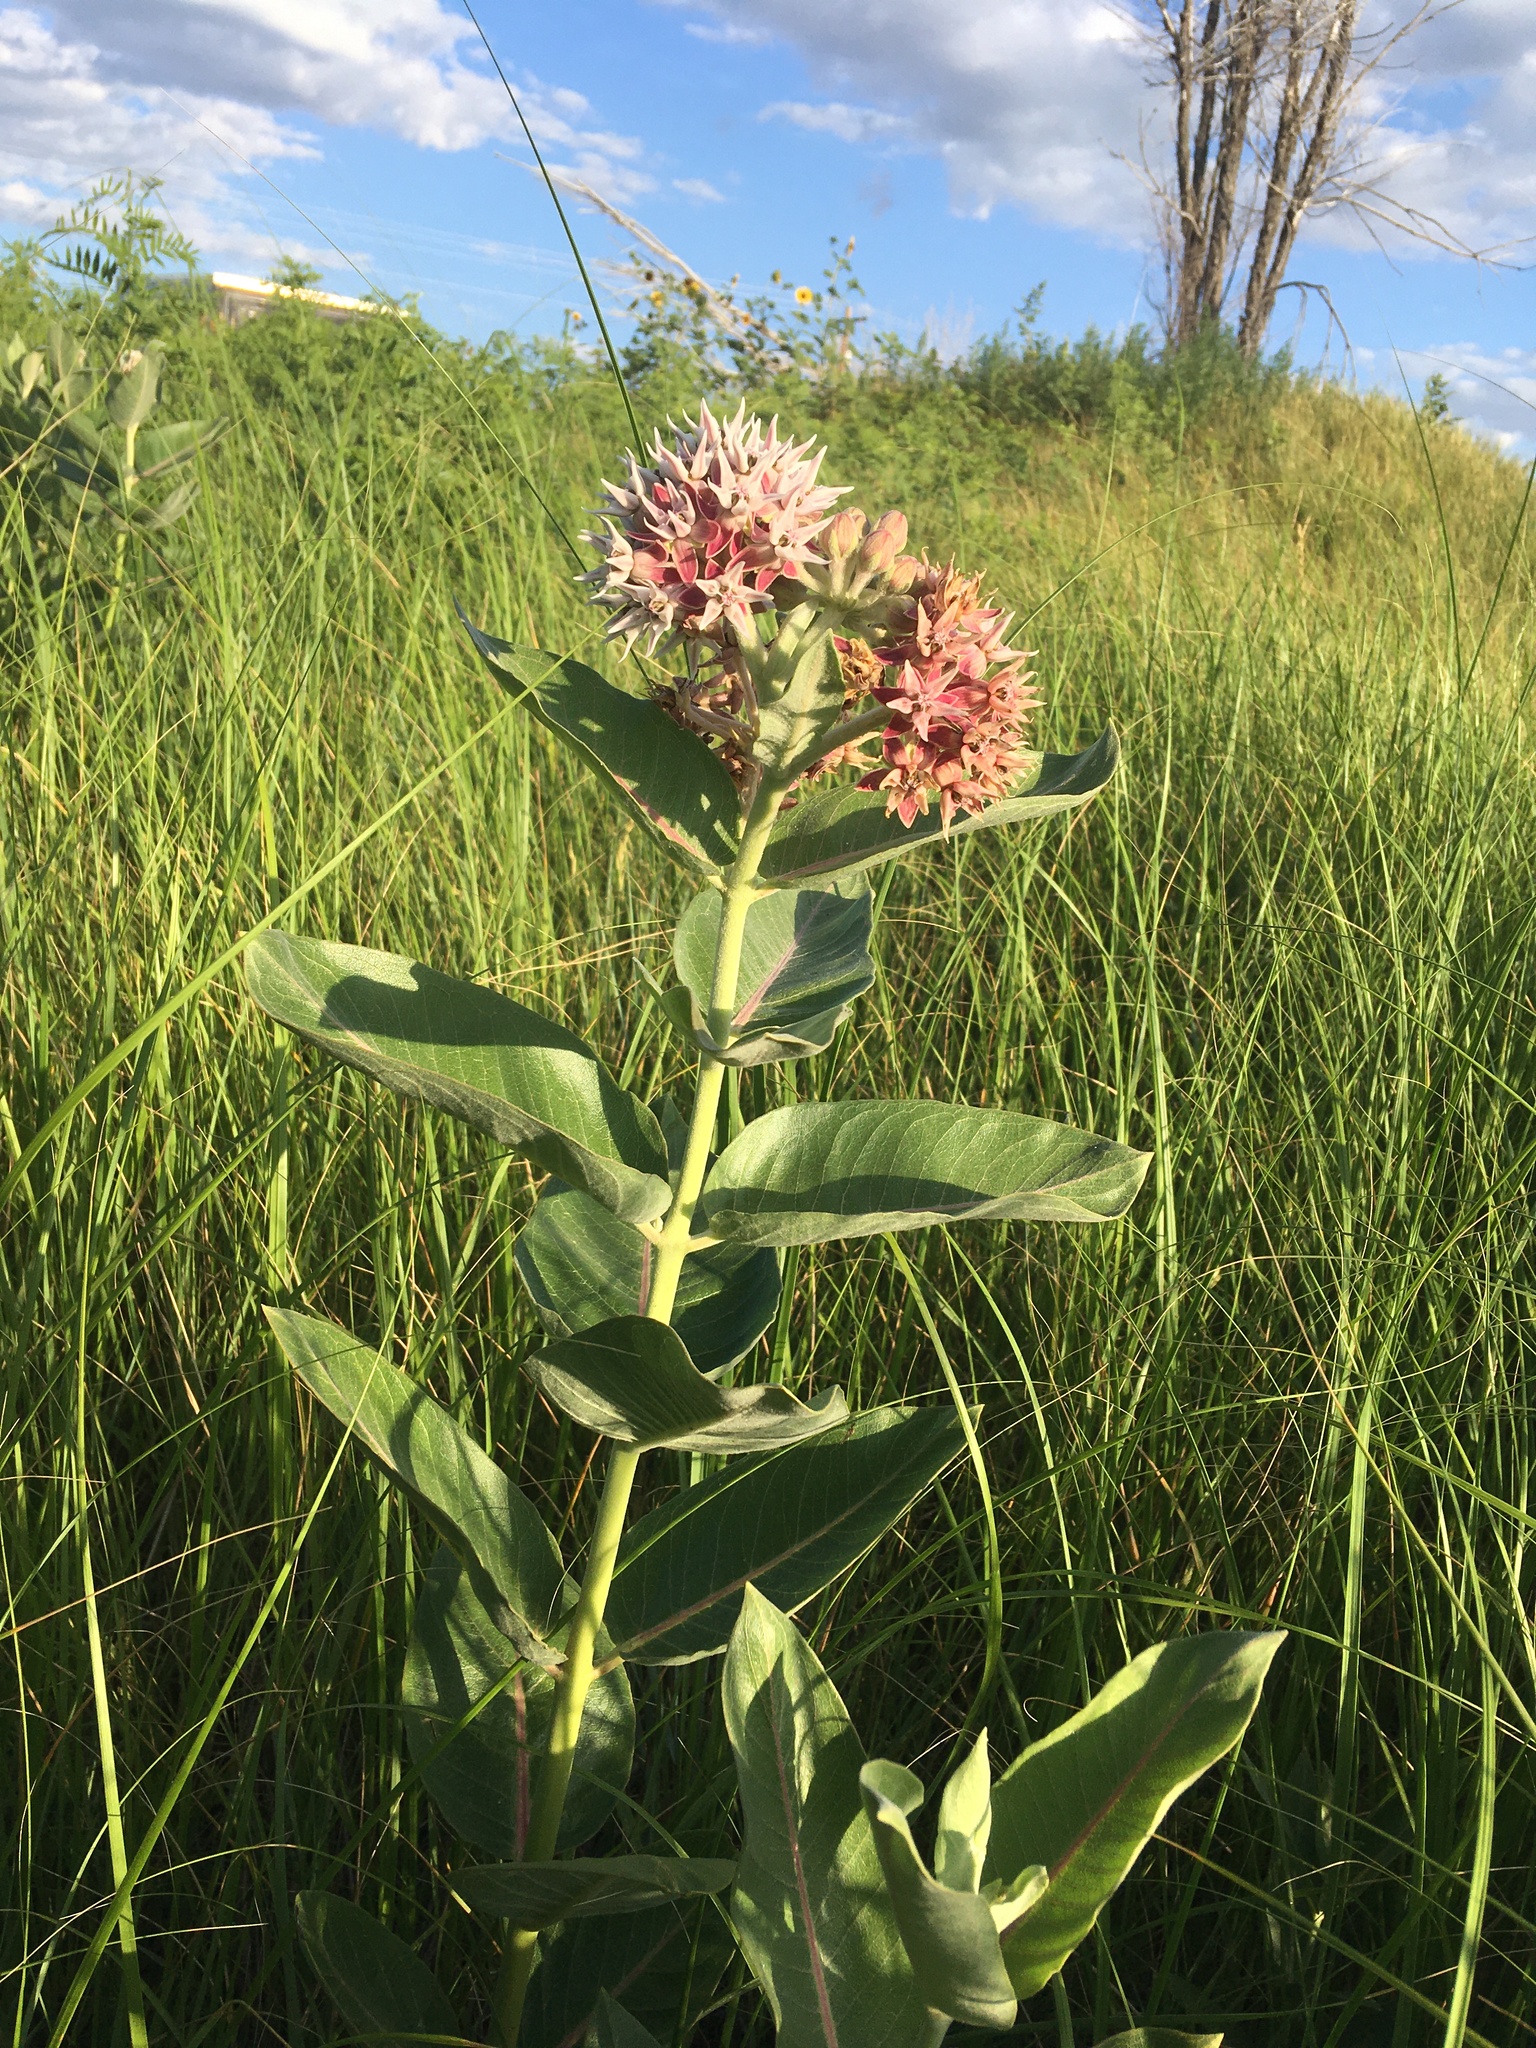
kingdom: Plantae
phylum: Tracheophyta
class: Magnoliopsida
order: Gentianales
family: Apocynaceae
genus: Asclepias
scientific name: Asclepias speciosa
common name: Showy milkweed
